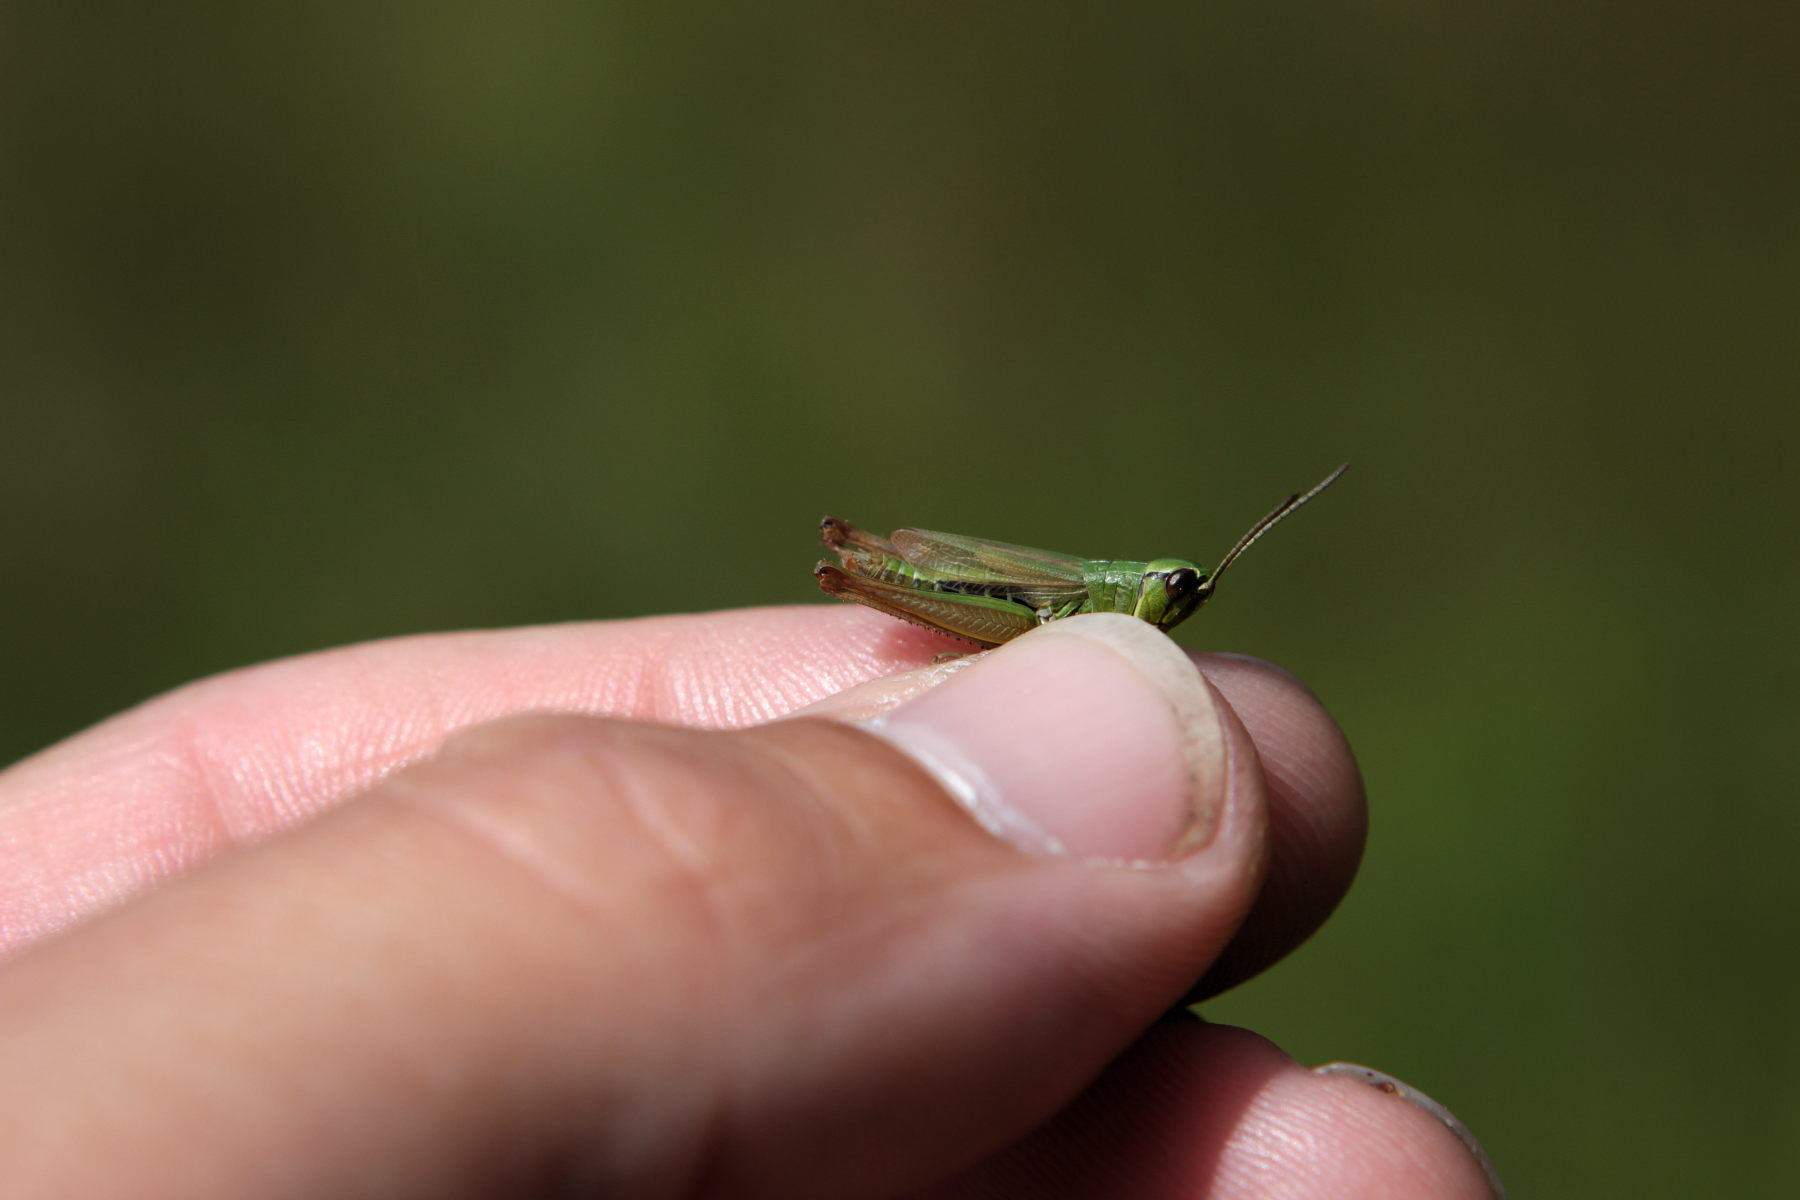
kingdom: Animalia
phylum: Arthropoda
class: Insecta
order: Orthoptera
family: Acrididae
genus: Pseudochorthippus
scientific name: Pseudochorthippus parallelus
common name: Meadow grasshopper
